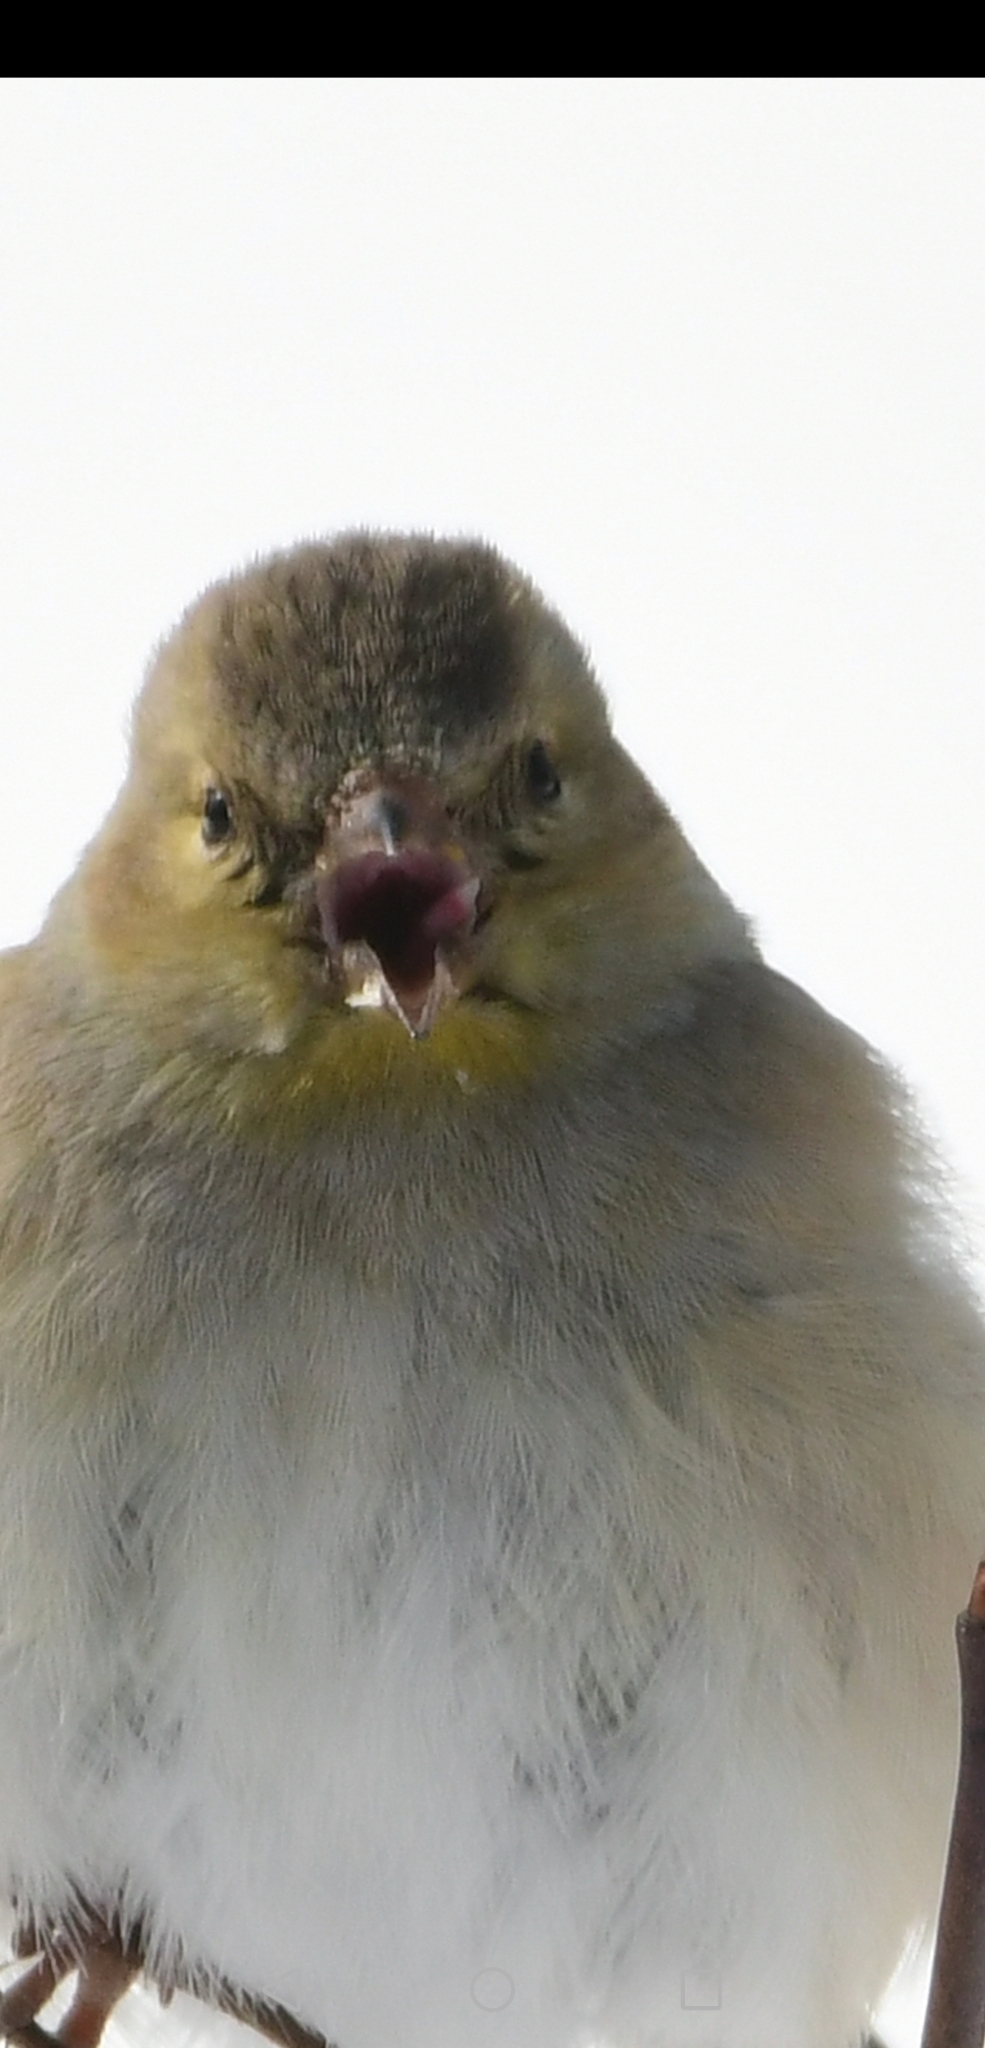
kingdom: Animalia
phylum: Chordata
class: Aves
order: Passeriformes
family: Fringillidae
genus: Spinus
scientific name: Spinus tristis
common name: American goldfinch
